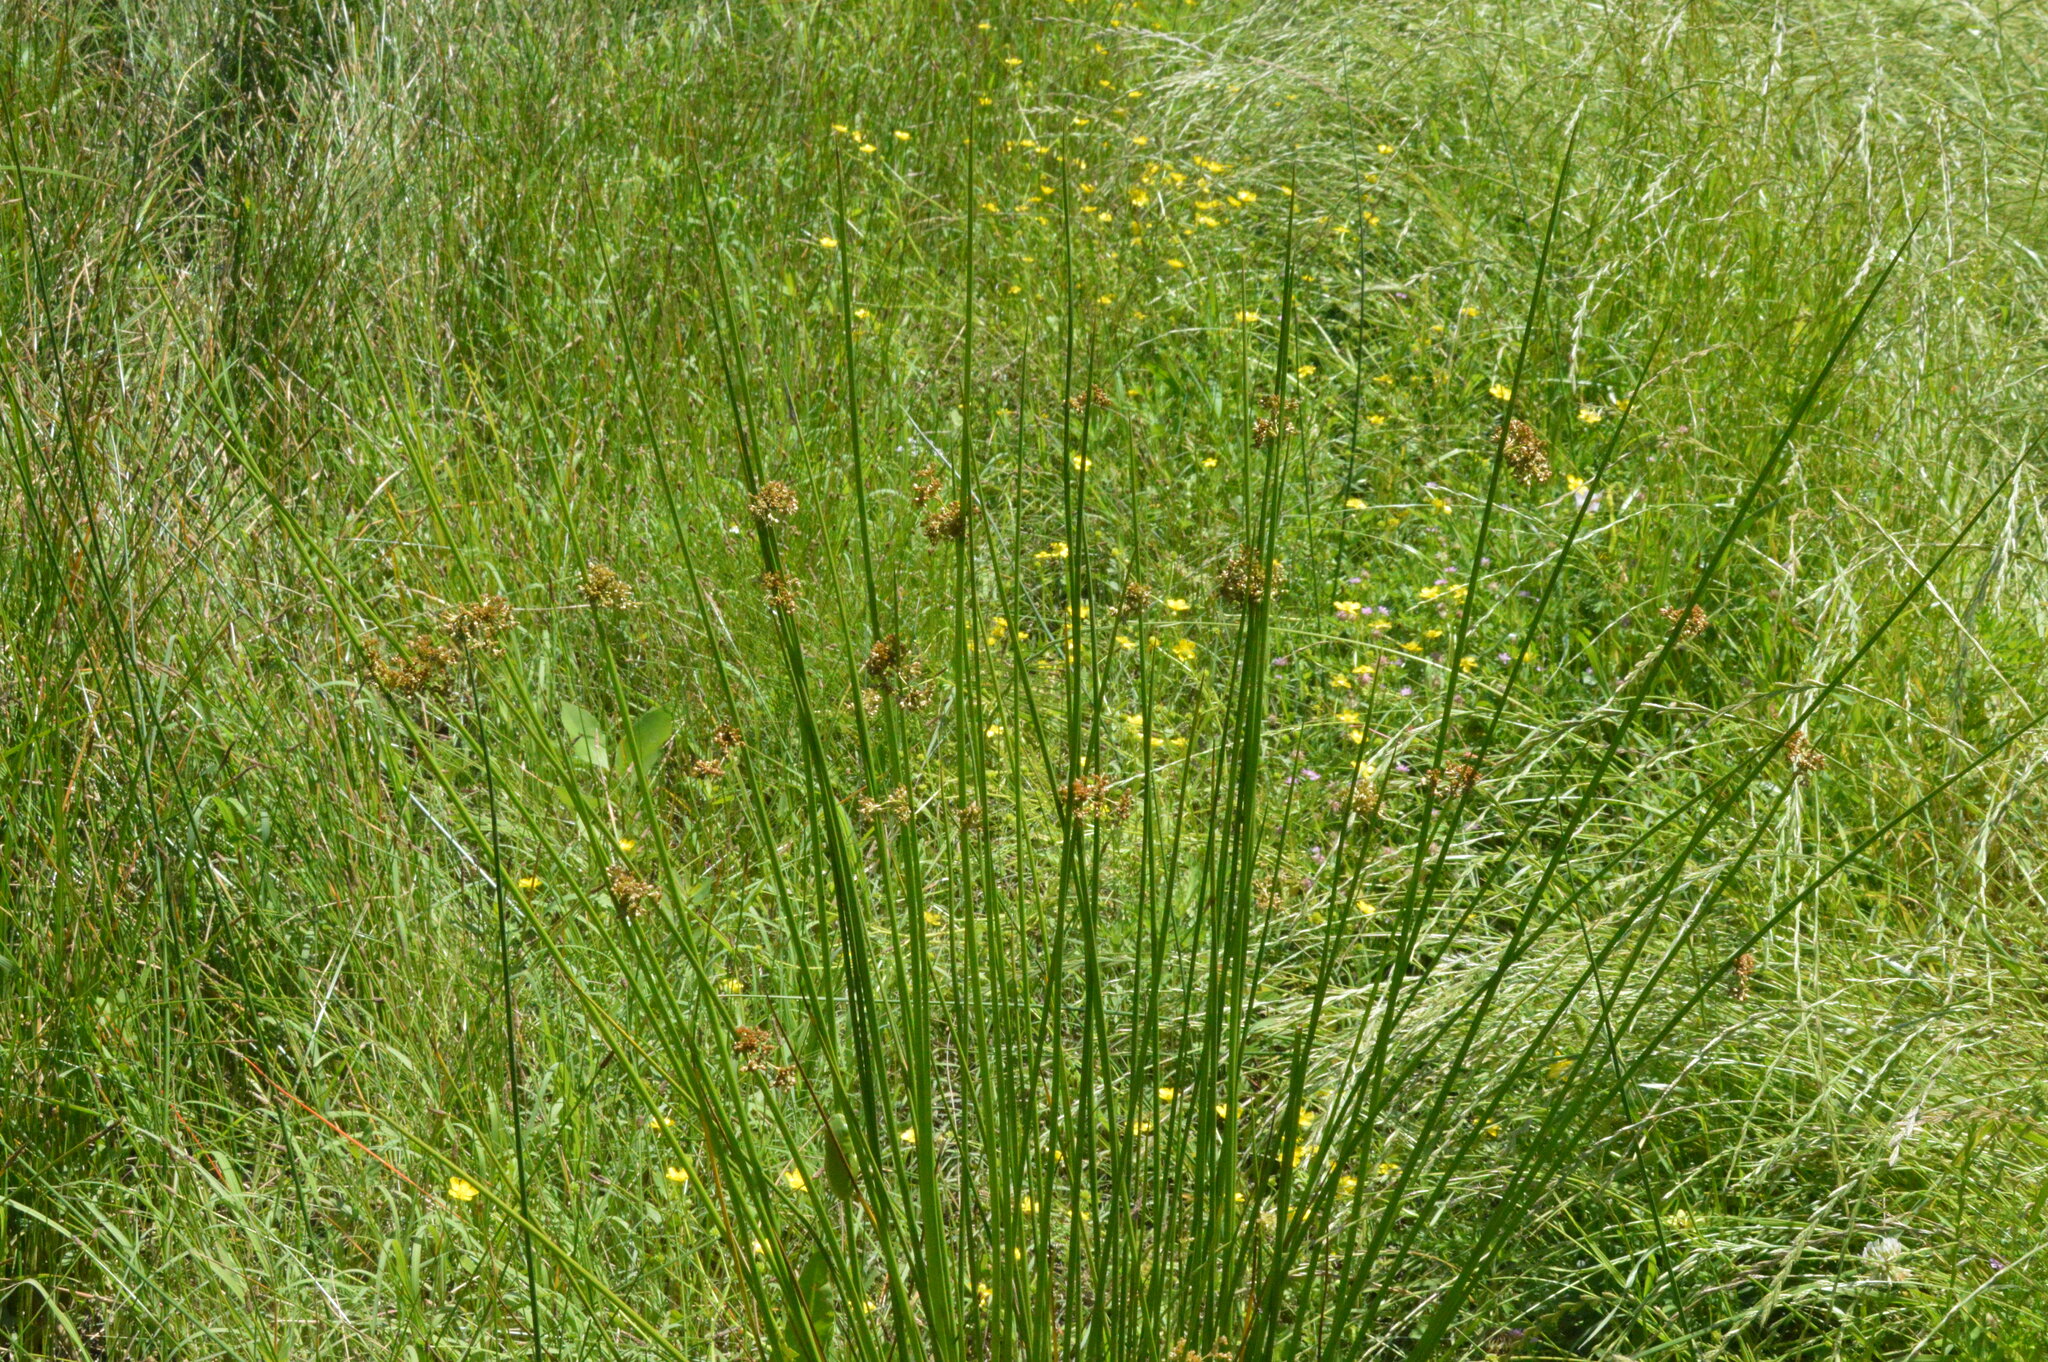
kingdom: Plantae
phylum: Tracheophyta
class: Liliopsida
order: Poales
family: Juncaceae
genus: Juncus
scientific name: Juncus effusus
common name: Soft rush
